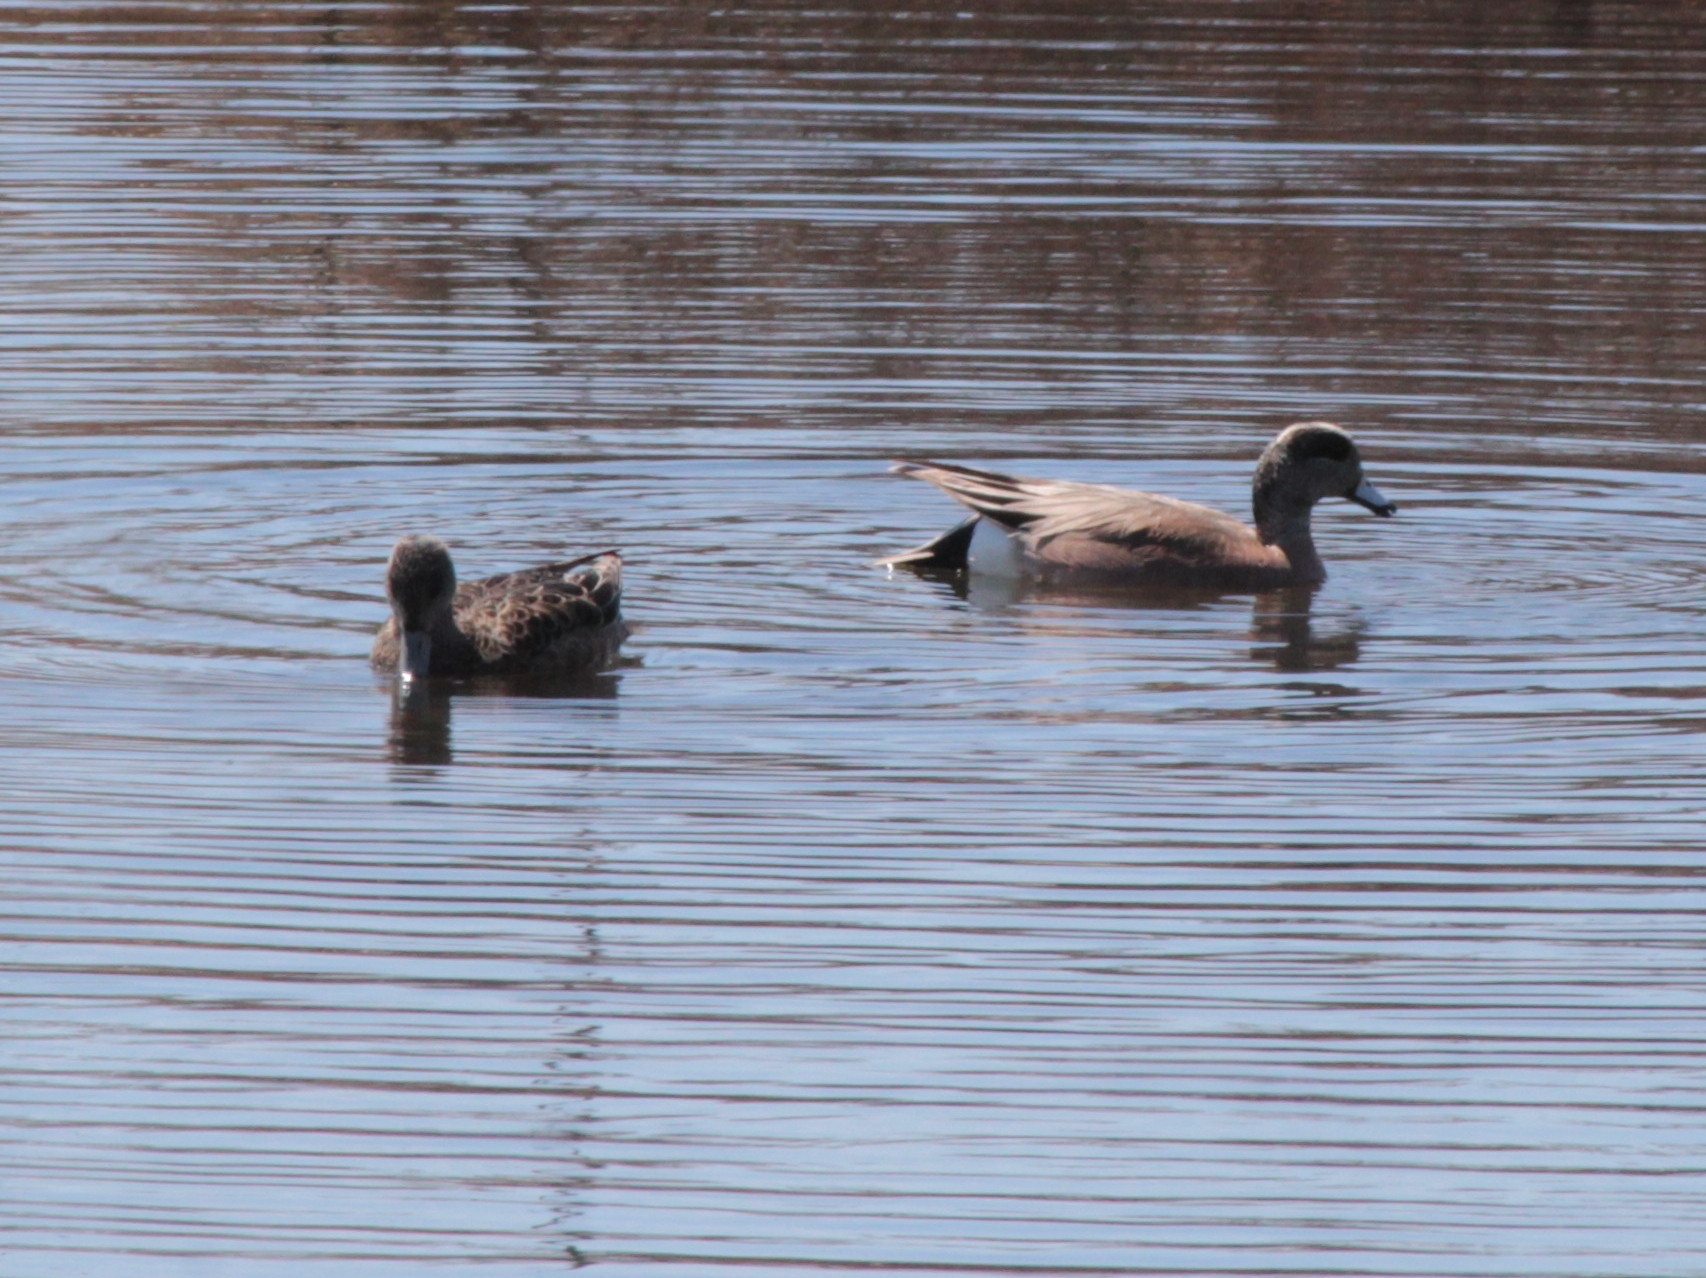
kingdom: Animalia
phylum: Chordata
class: Aves
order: Anseriformes
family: Anatidae
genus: Mareca
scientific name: Mareca americana
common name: American wigeon
